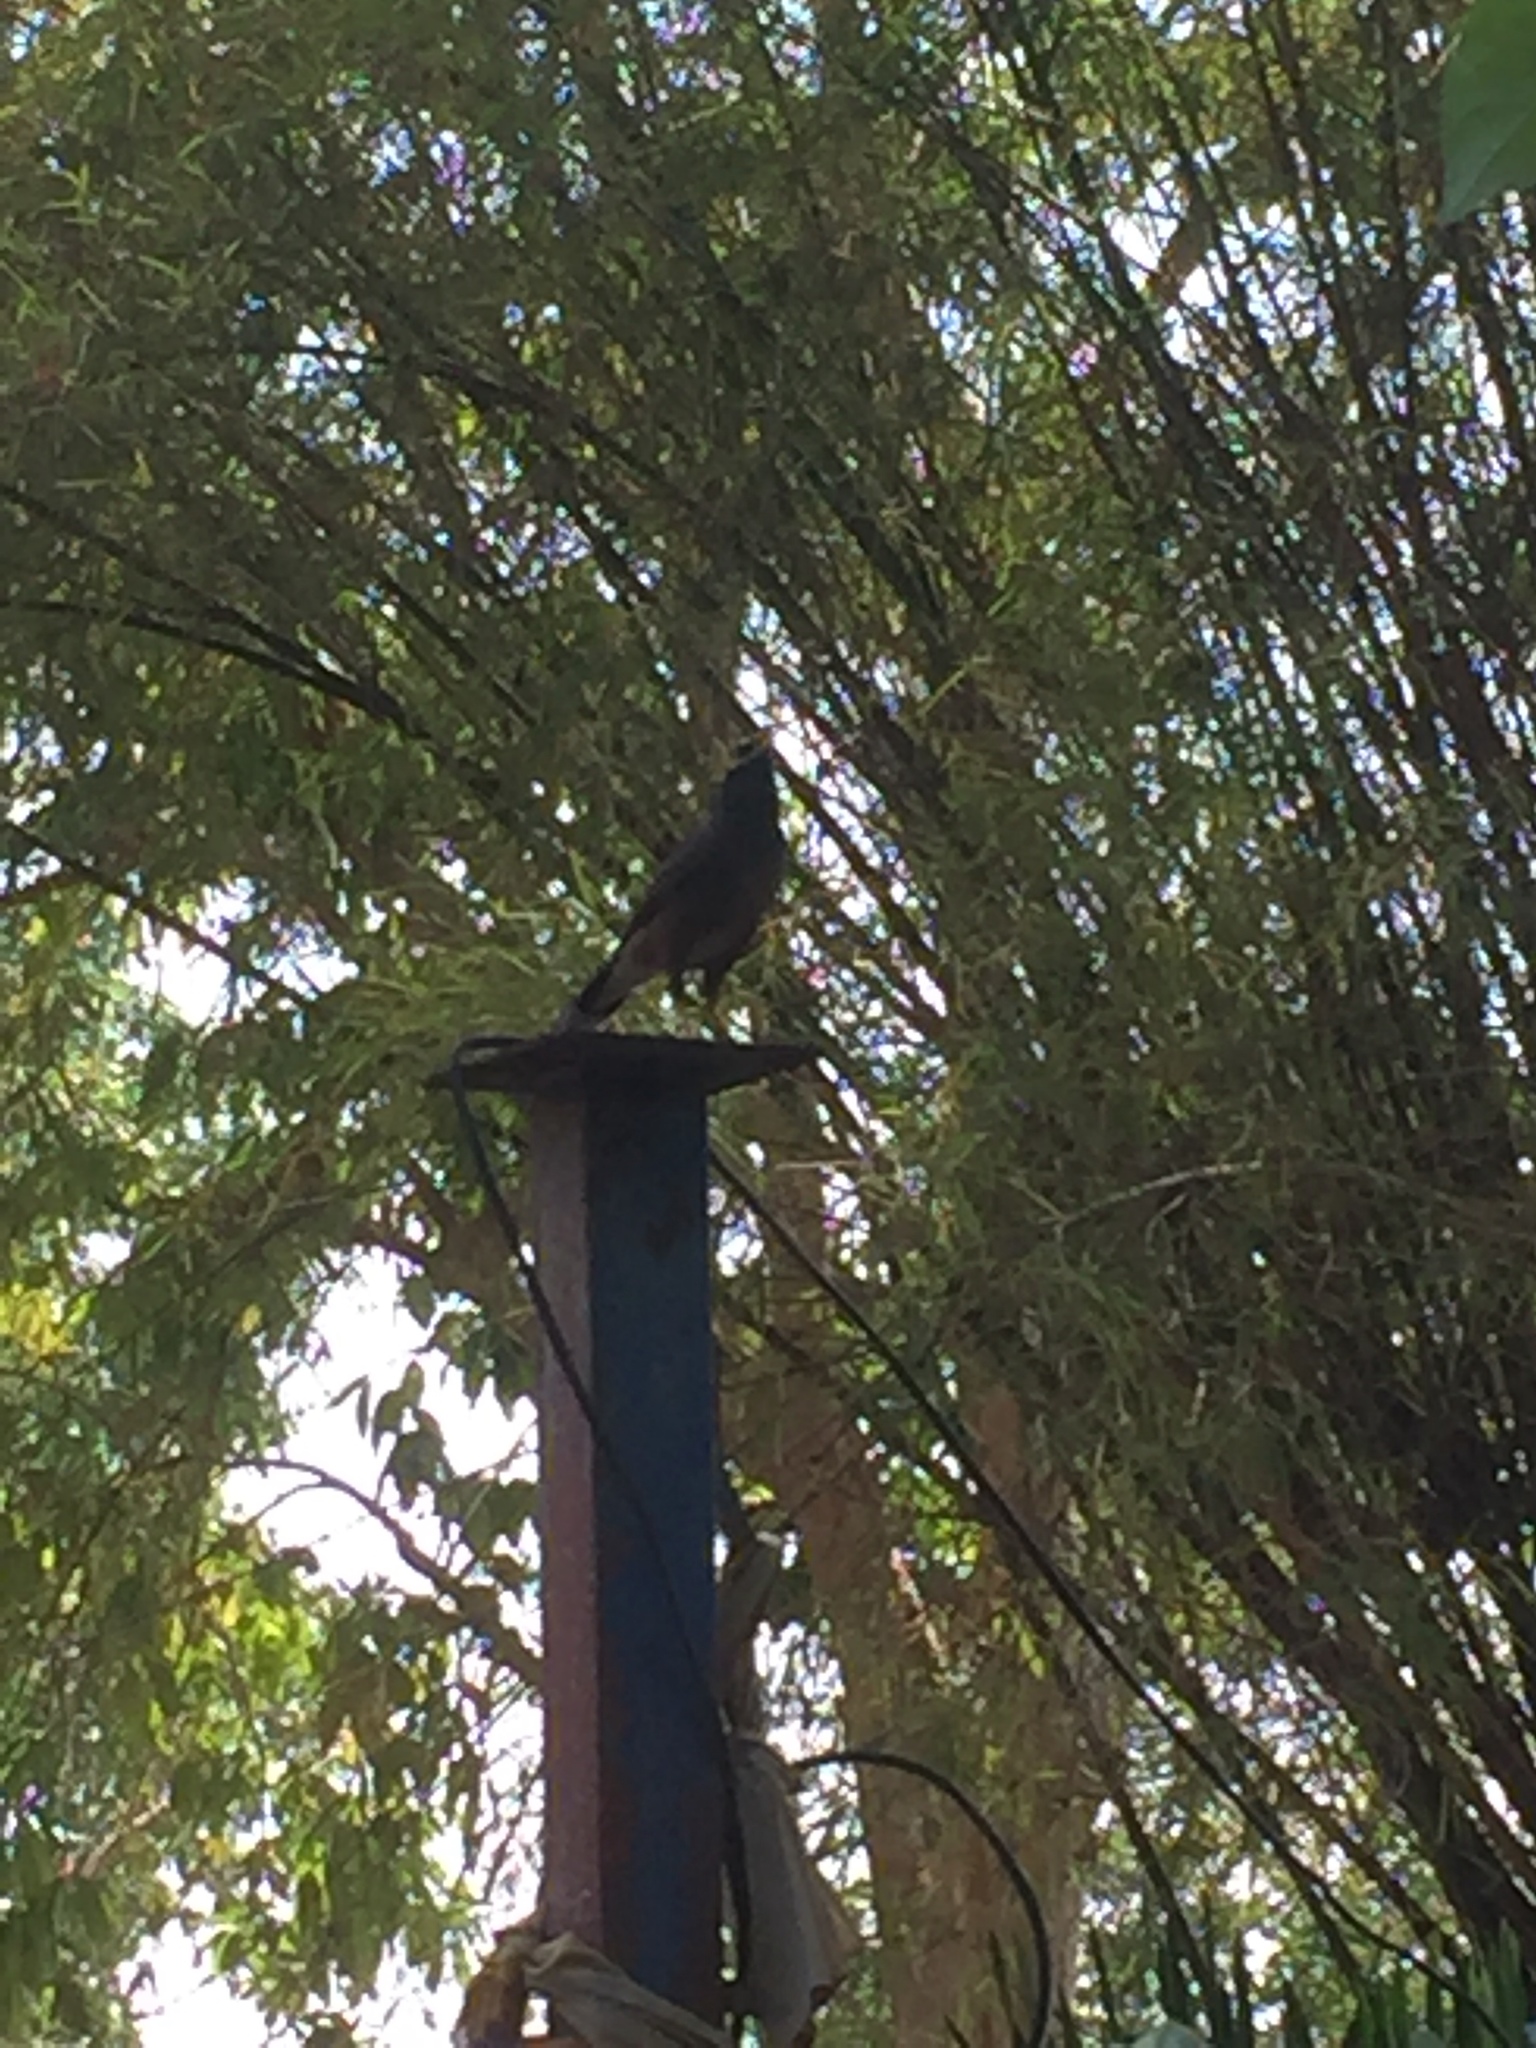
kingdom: Animalia
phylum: Chordata
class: Aves
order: Passeriformes
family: Sturnidae
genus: Acridotheres
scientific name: Acridotheres tristis
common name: Common myna
